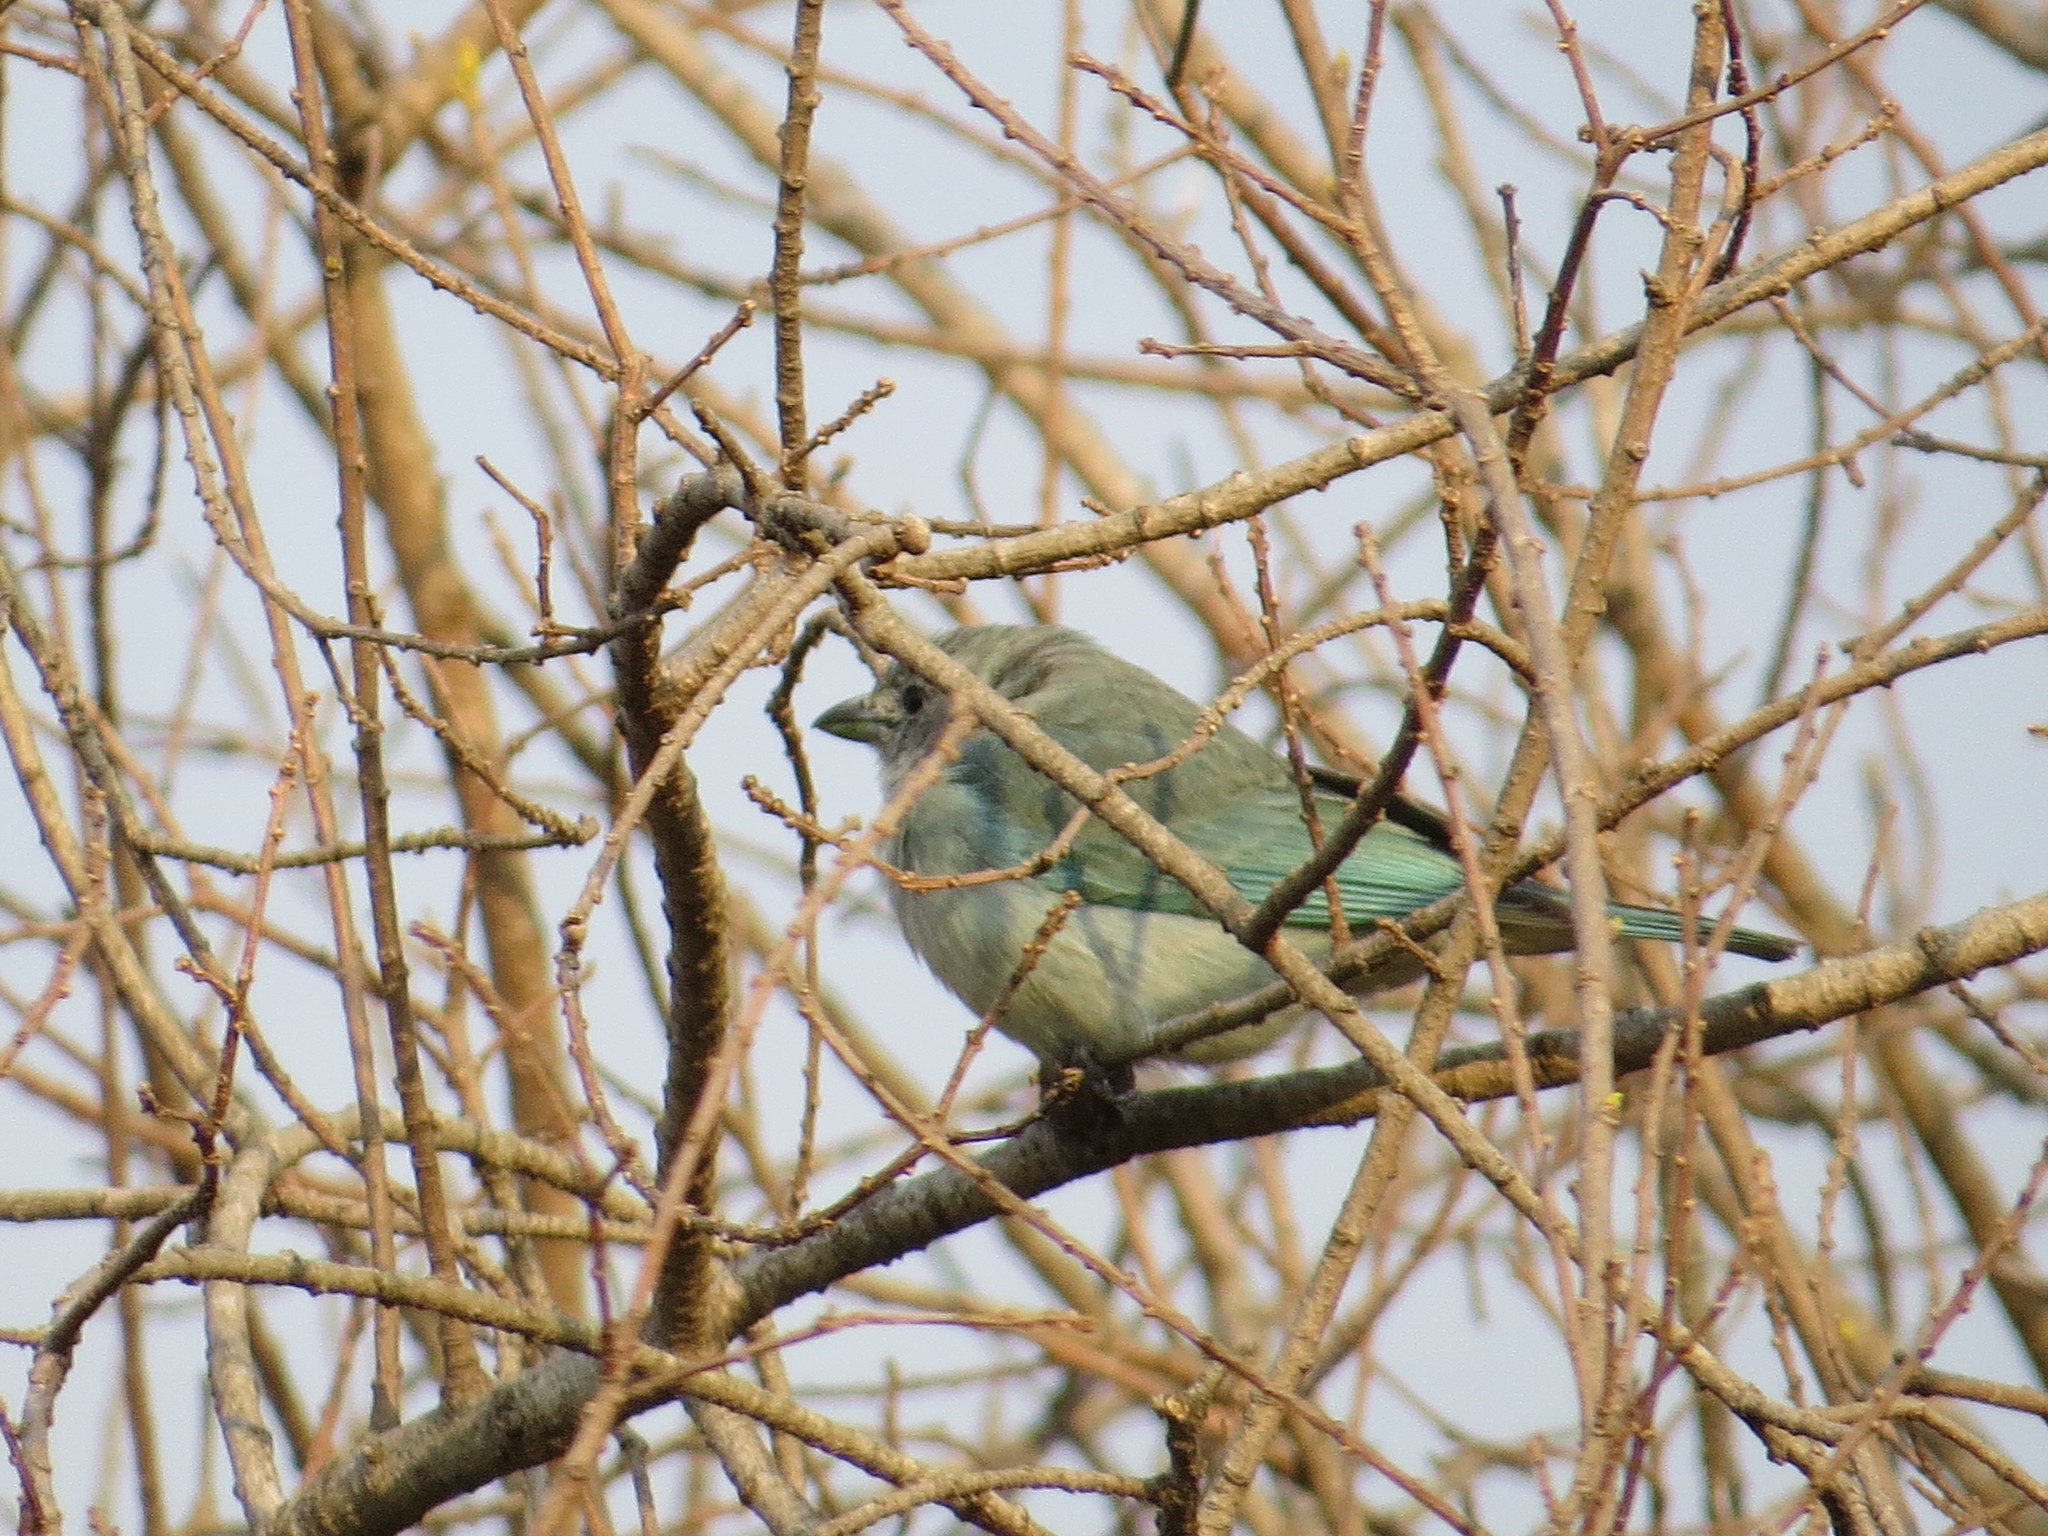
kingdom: Animalia
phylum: Chordata
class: Aves
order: Passeriformes
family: Thraupidae
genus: Thraupis
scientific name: Thraupis sayaca
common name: Sayaca tanager
